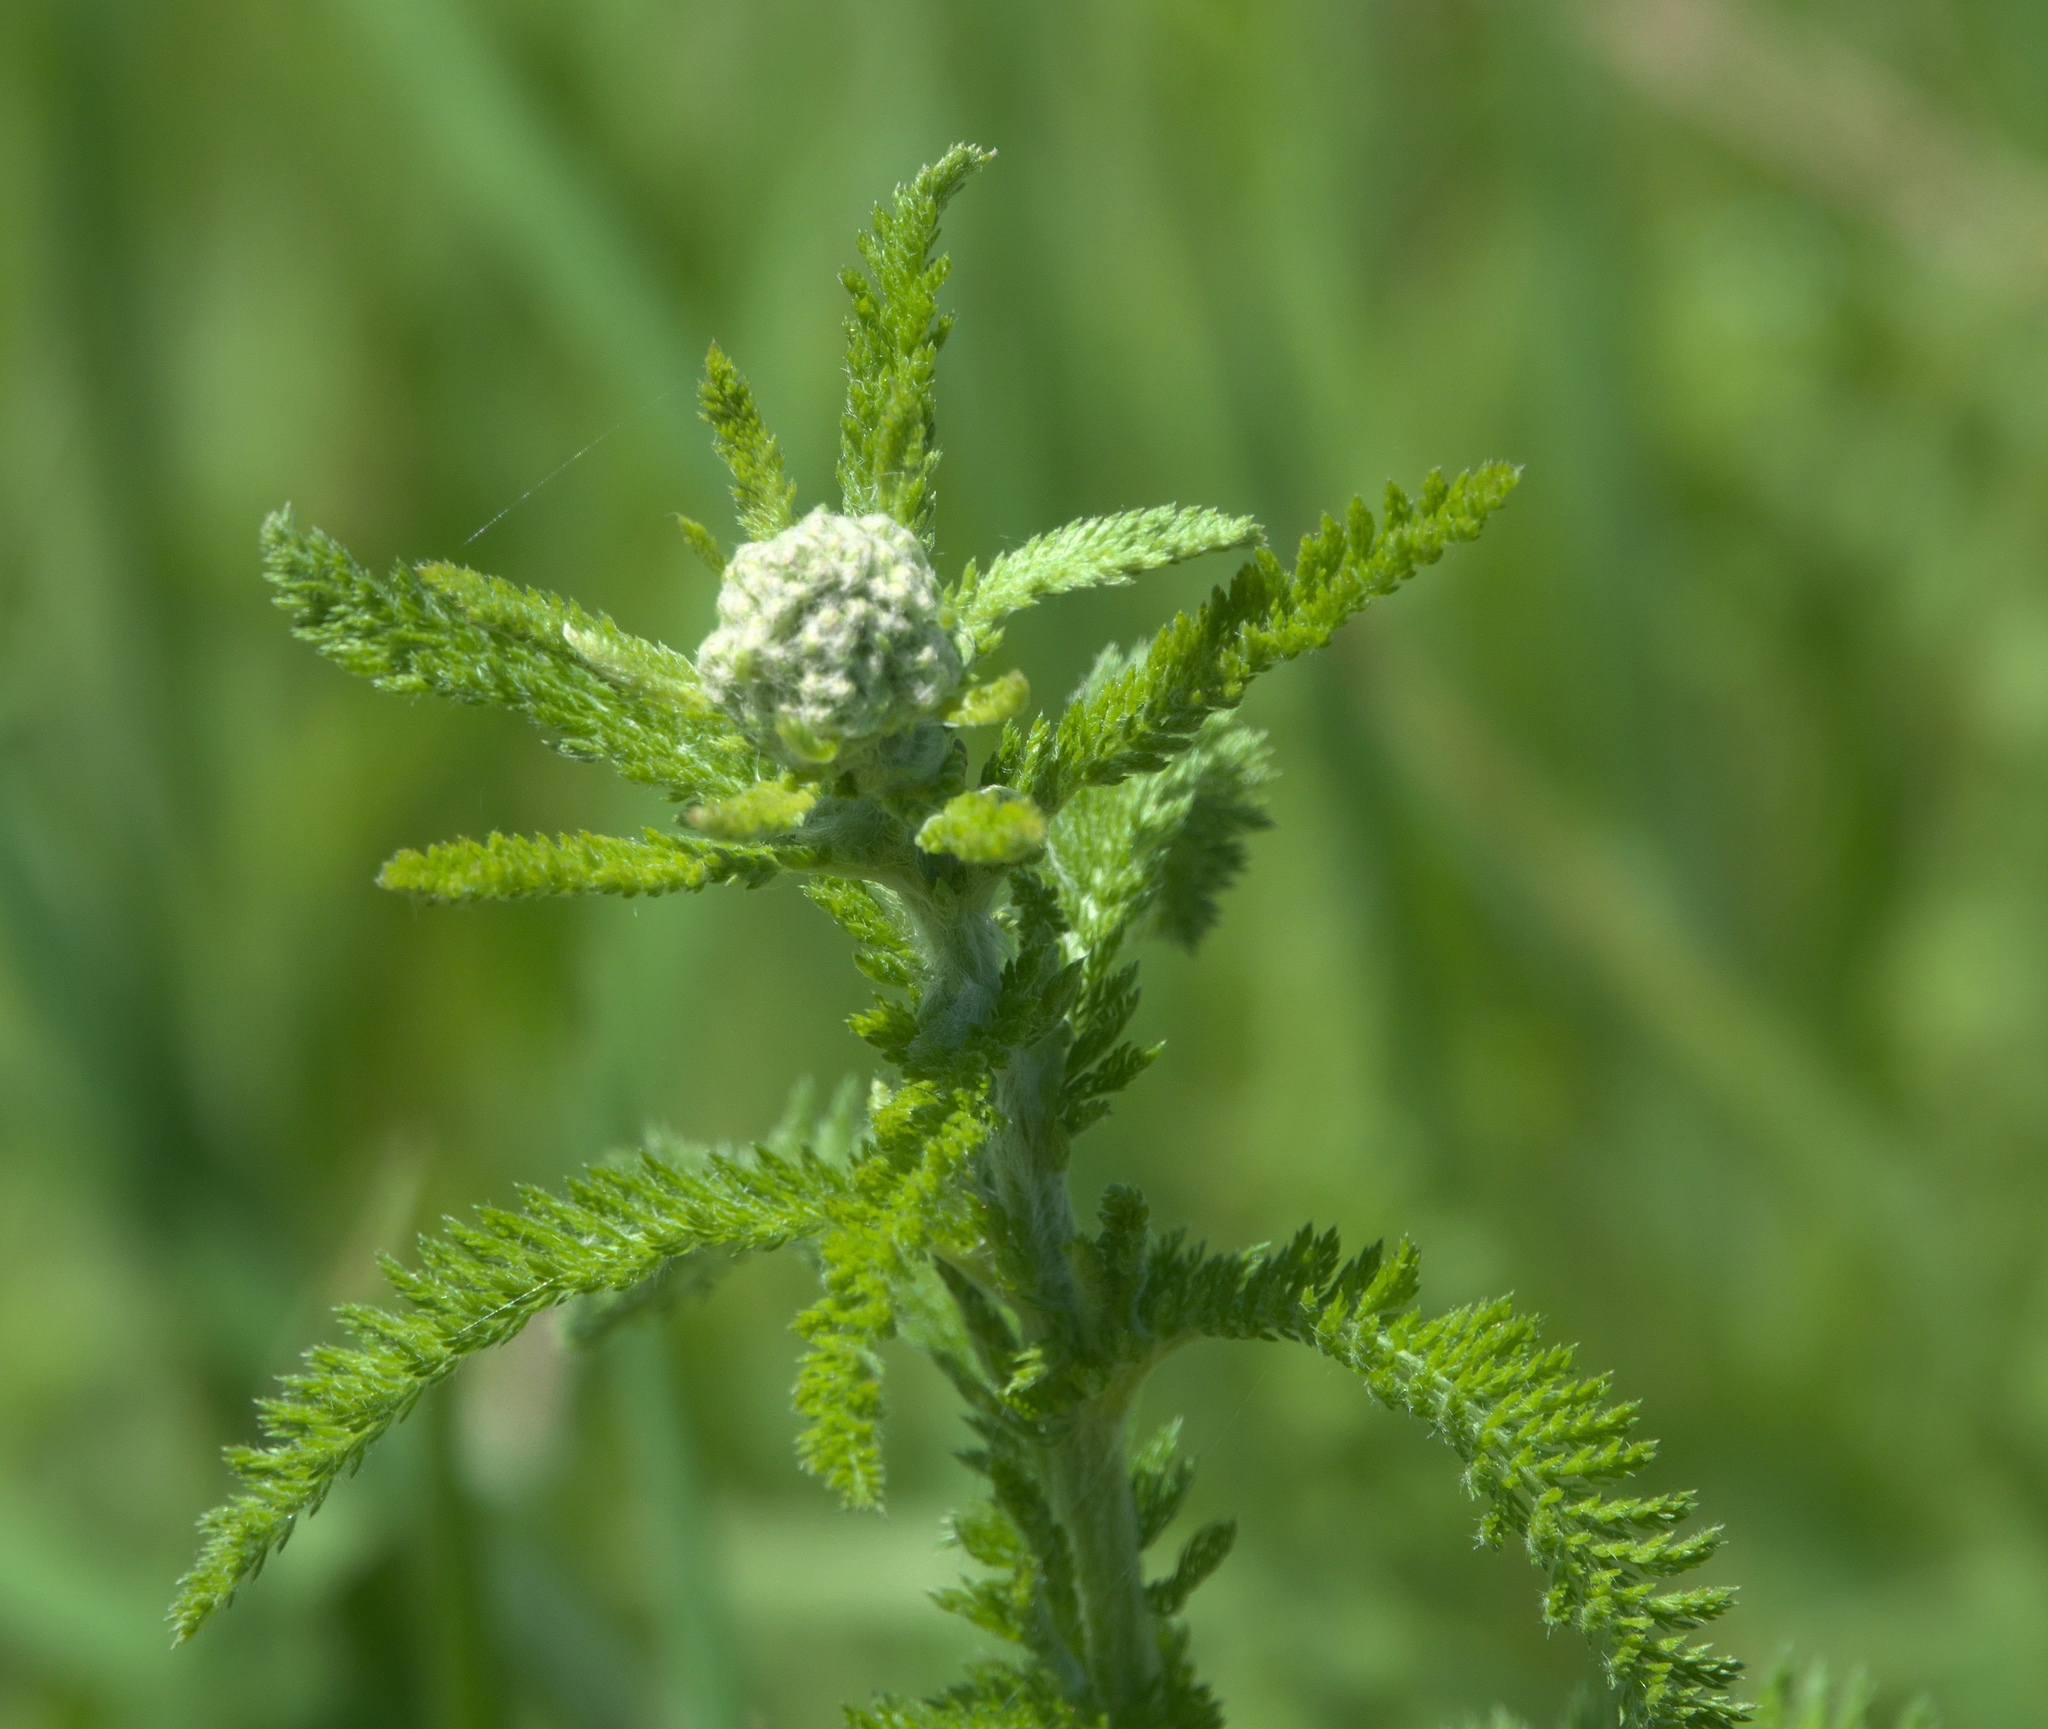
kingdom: Plantae
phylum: Tracheophyta
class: Magnoliopsida
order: Asterales
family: Asteraceae
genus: Achillea
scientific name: Achillea millefolium
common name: Yarrow
